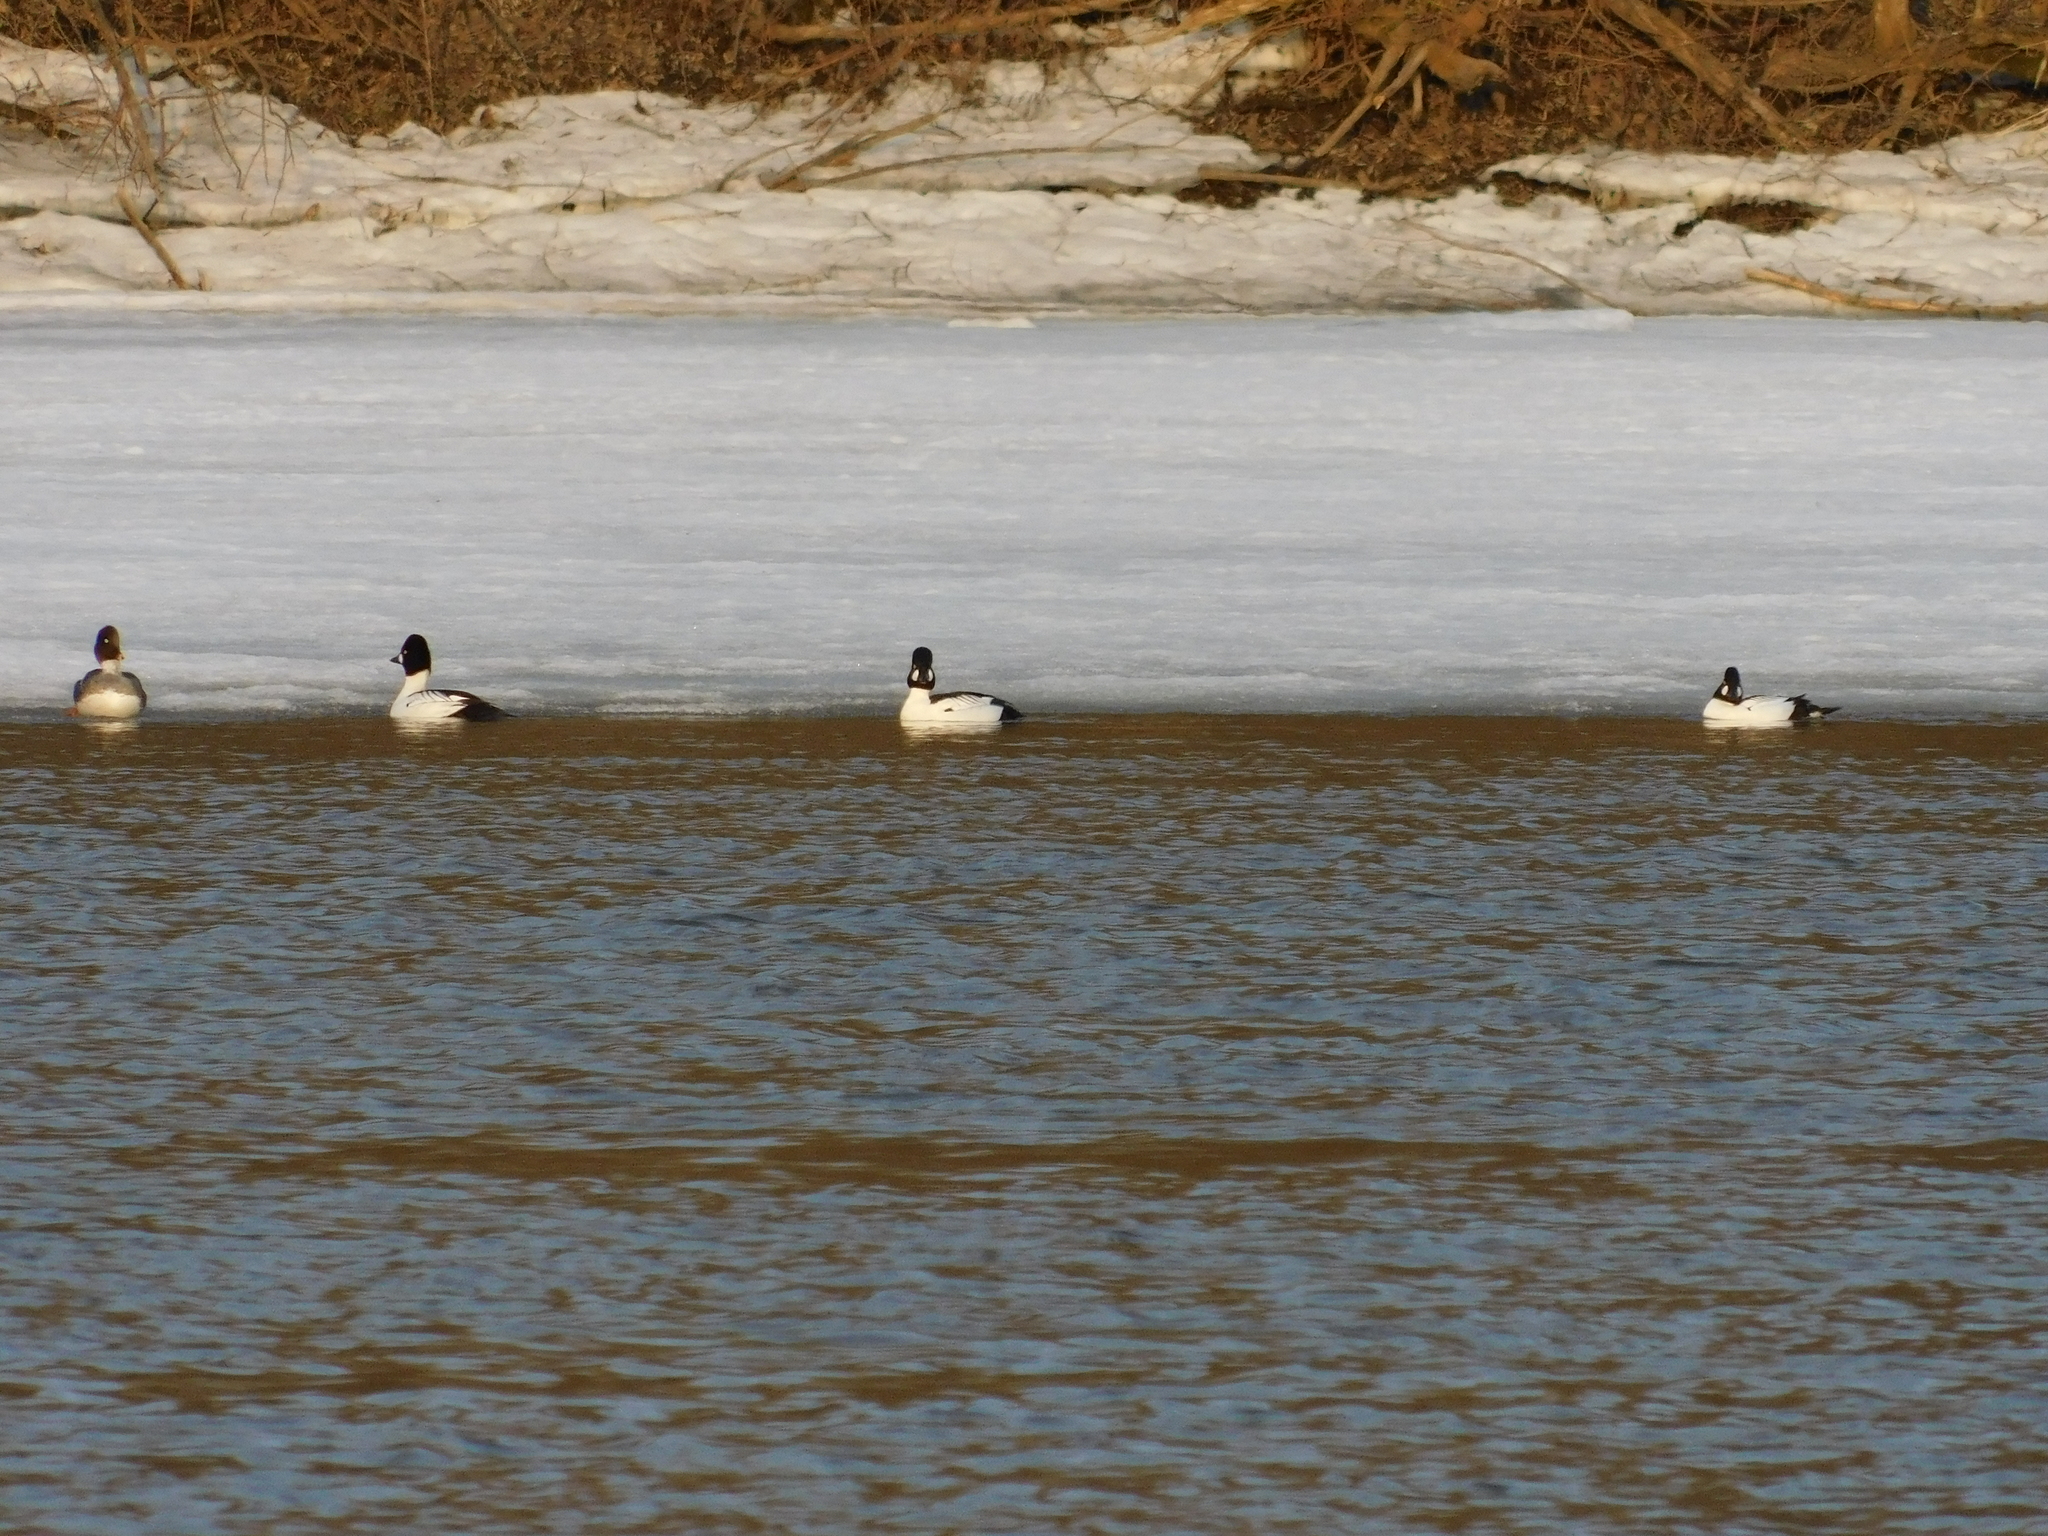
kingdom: Animalia
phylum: Chordata
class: Aves
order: Anseriformes
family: Anatidae
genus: Bucephala
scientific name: Bucephala clangula
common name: Common goldeneye
